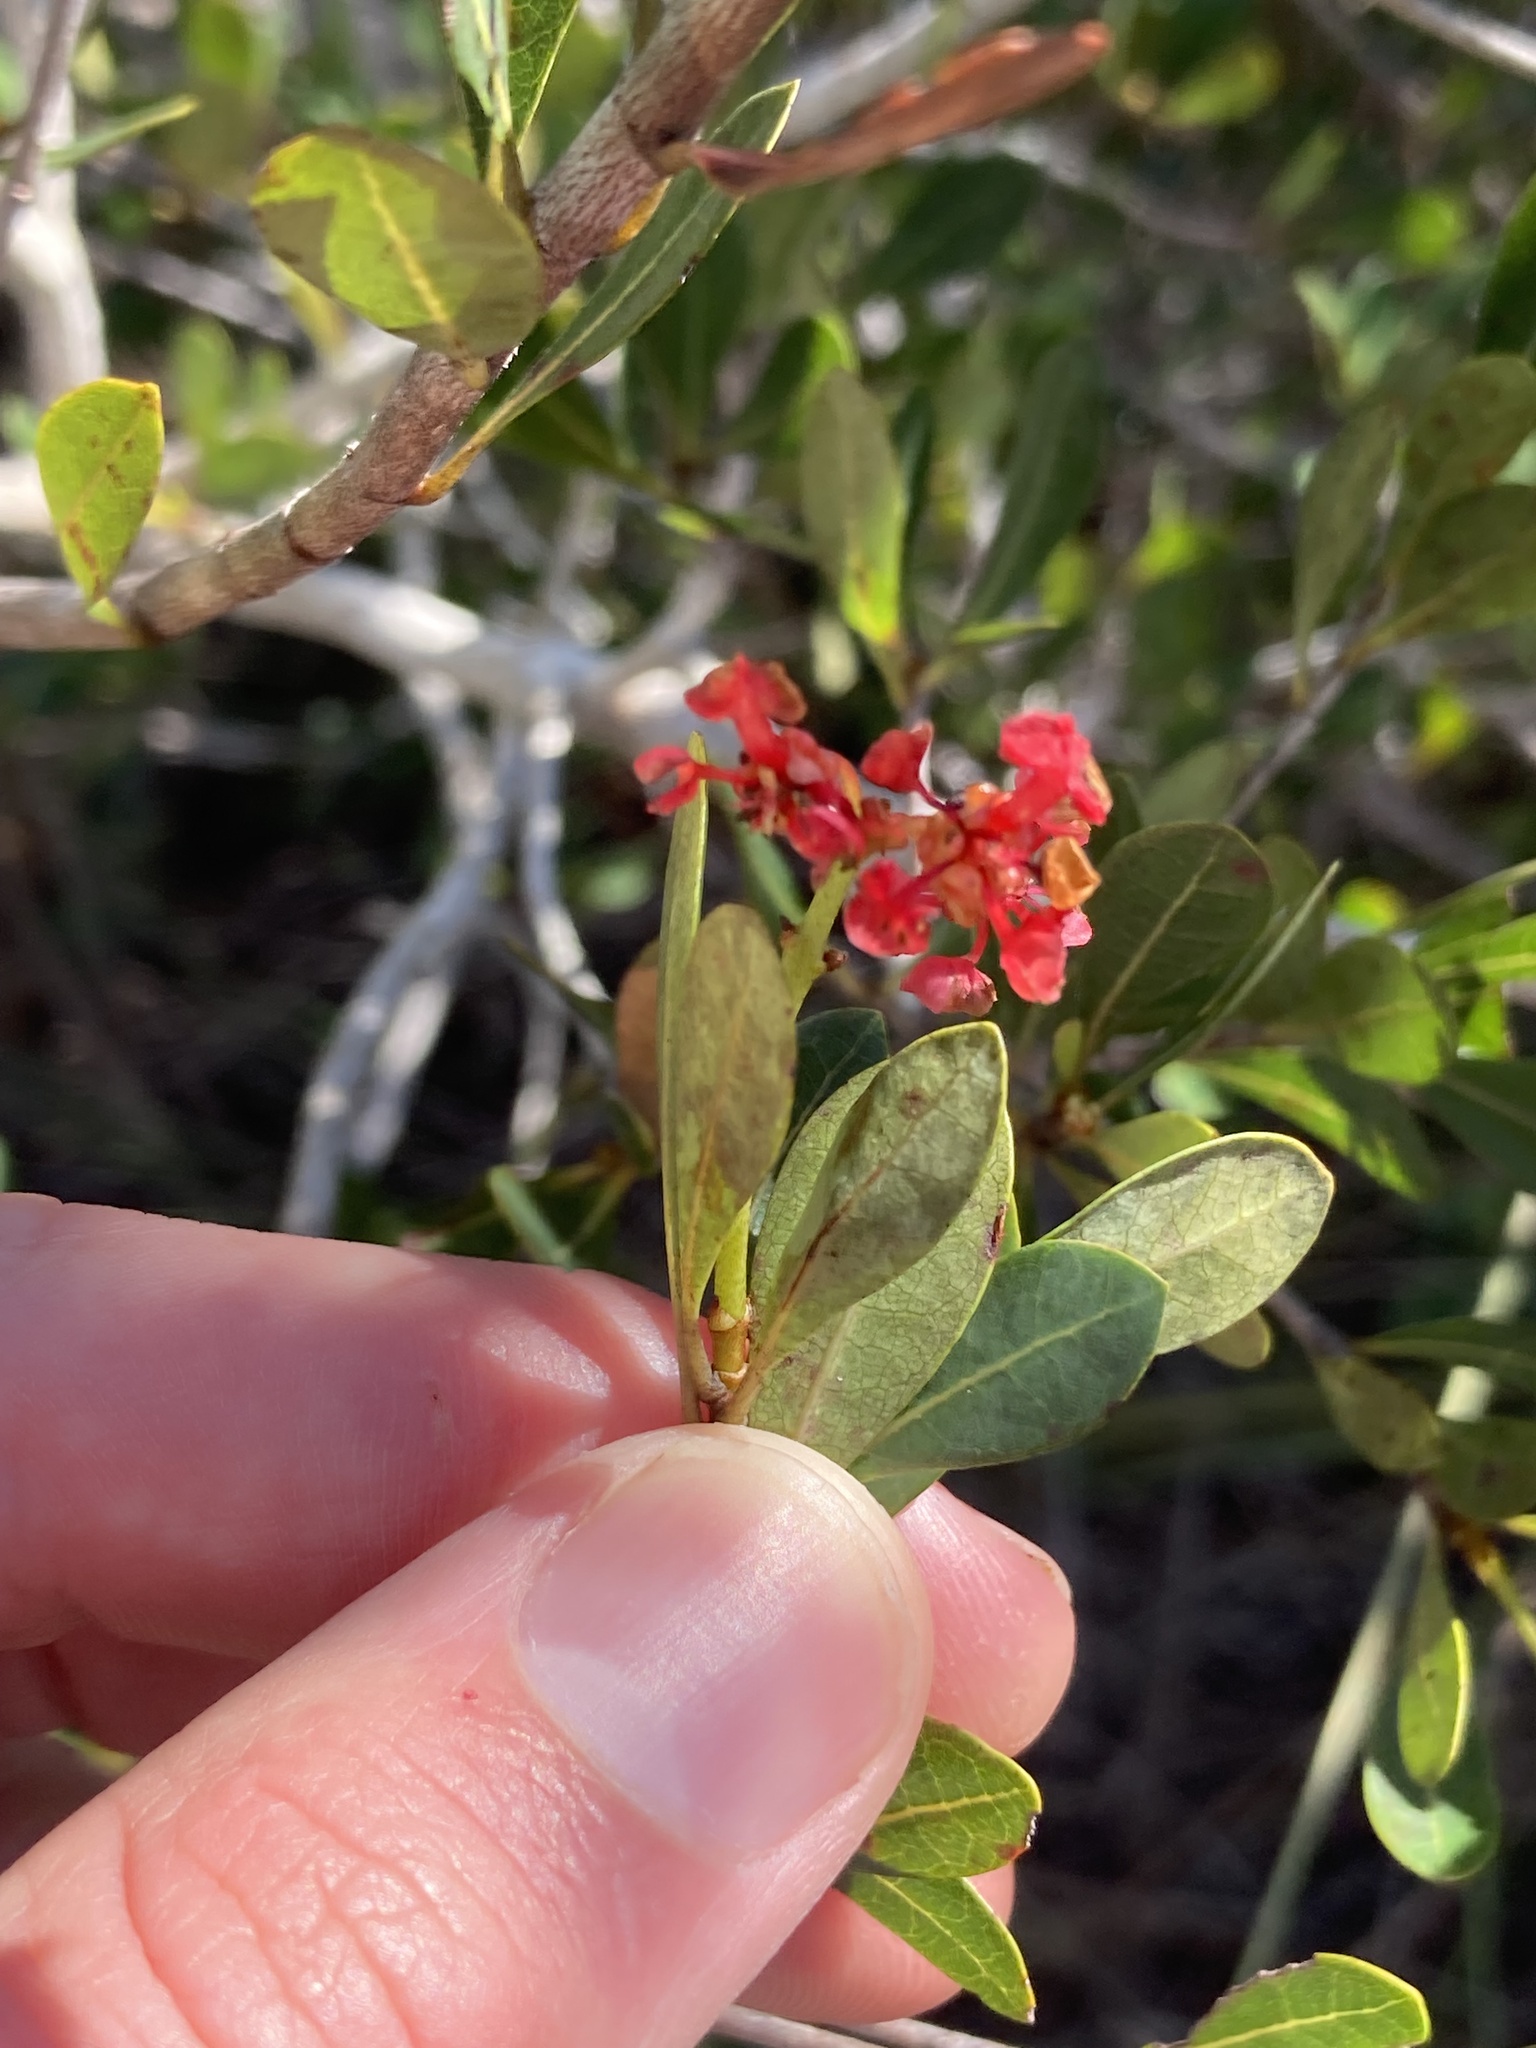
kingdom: Plantae
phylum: Tracheophyta
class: Magnoliopsida
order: Malpighiales
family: Malpighiaceae
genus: Byrsonima
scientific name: Byrsonima lucida
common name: Clam-cherry
